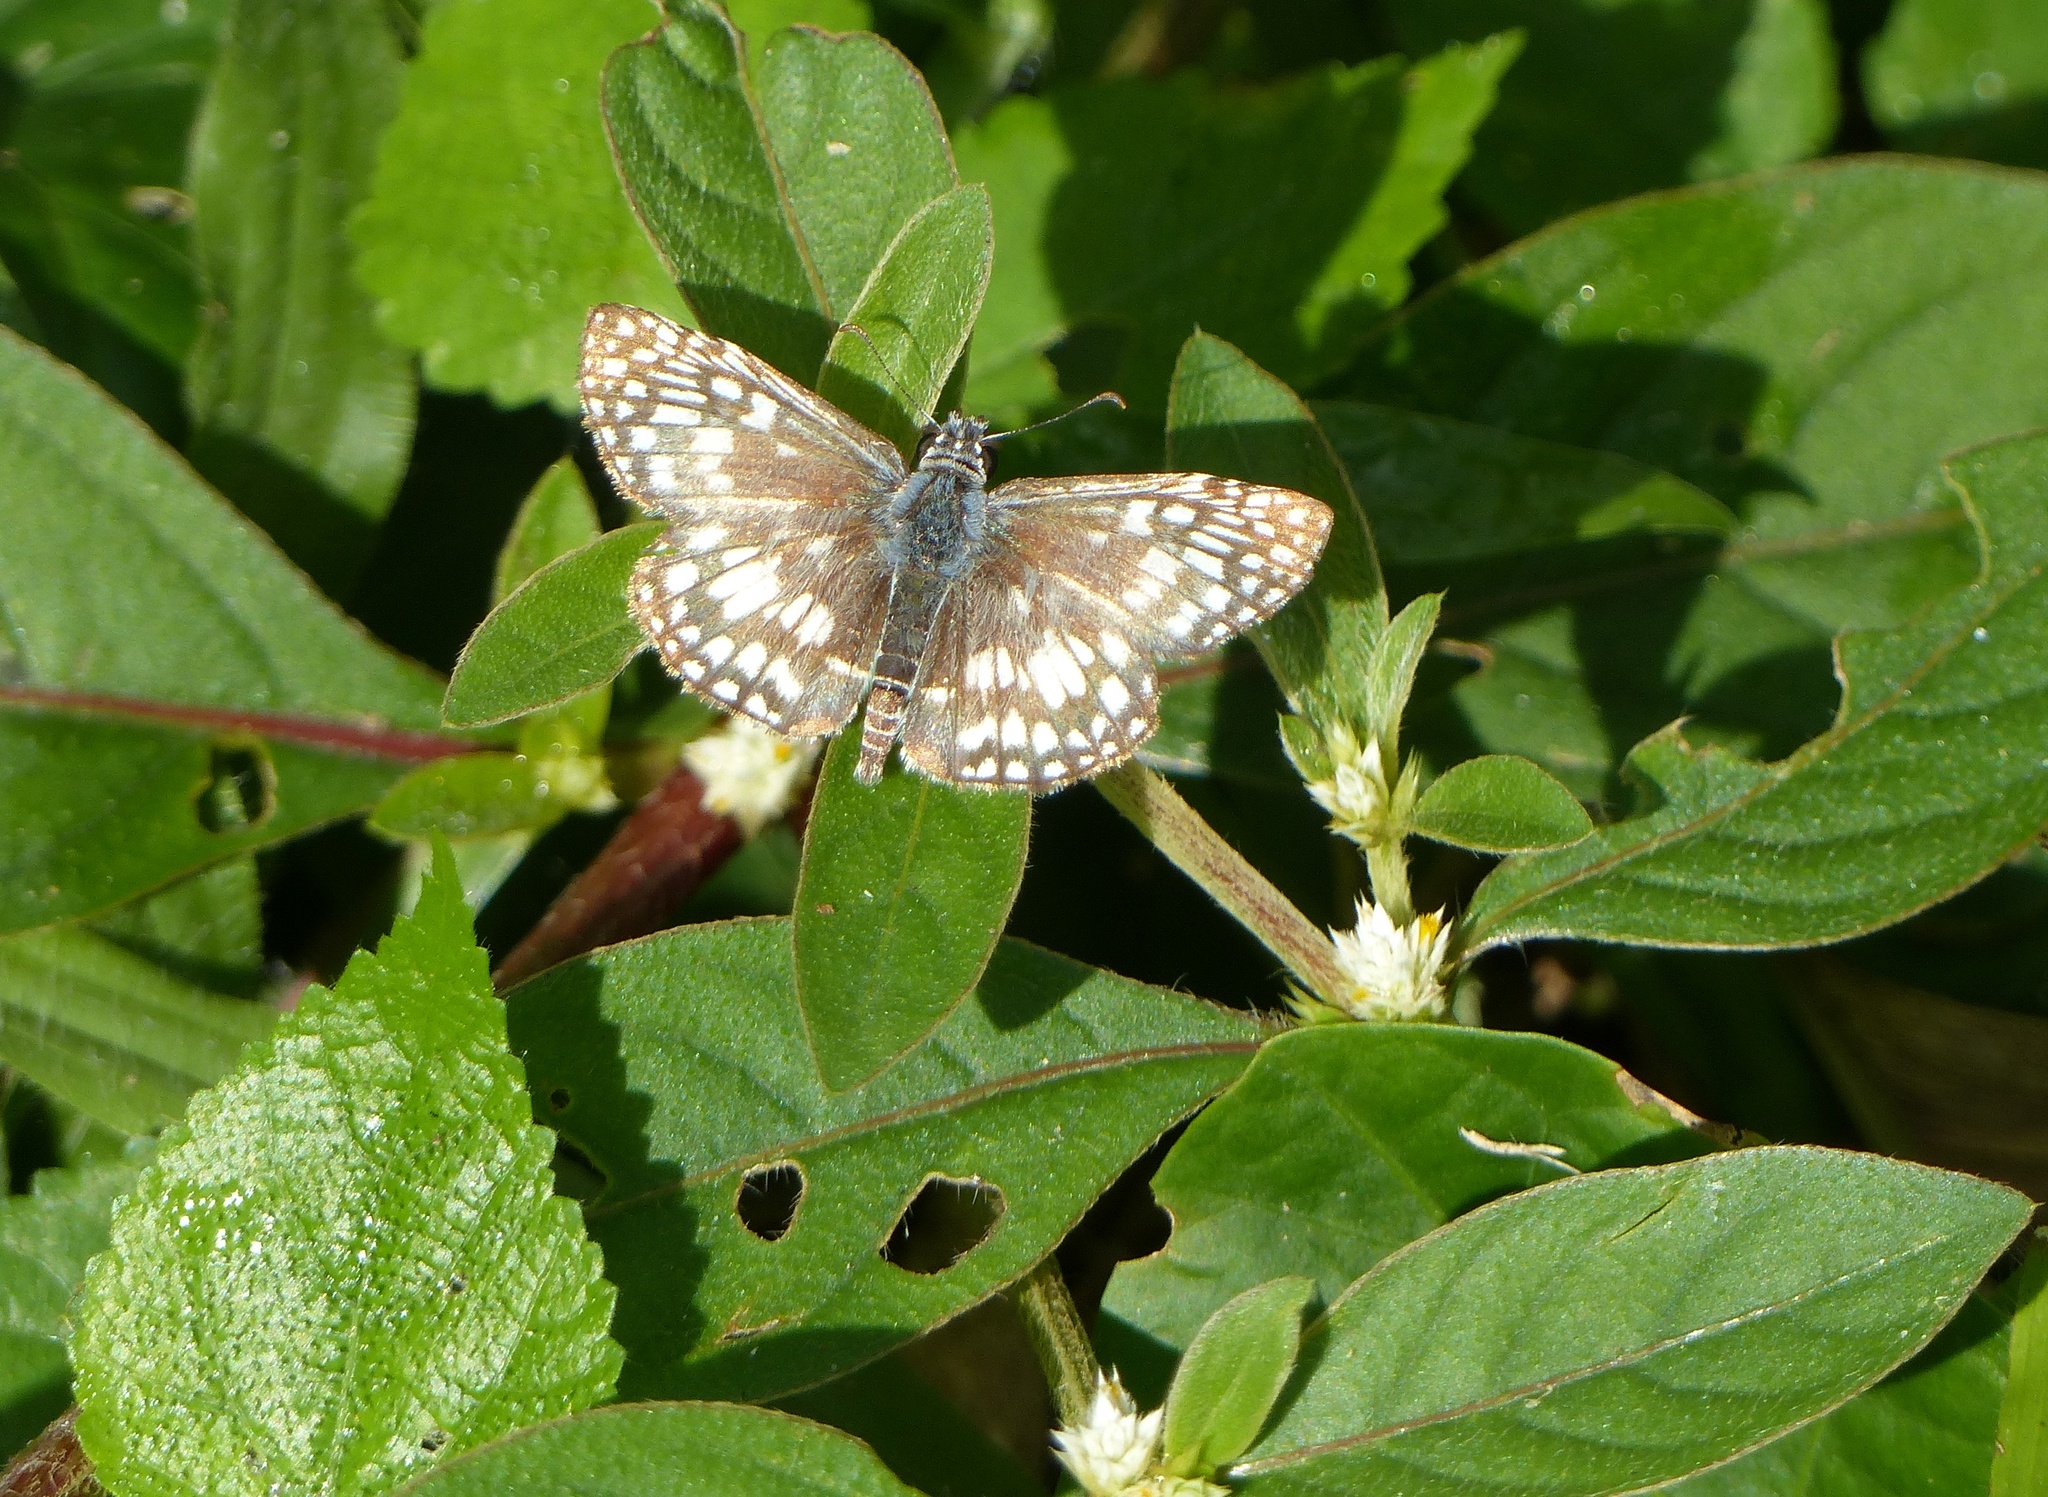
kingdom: Animalia
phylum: Arthropoda
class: Insecta
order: Lepidoptera
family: Hesperiidae
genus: Pyrgus
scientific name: Pyrgus oileus
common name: Tropical checkered-skipper
